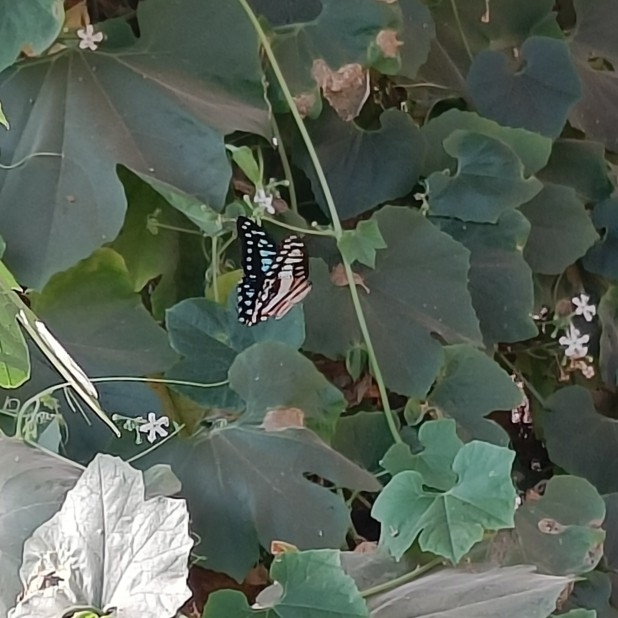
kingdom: Animalia
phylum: Arthropoda
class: Insecta
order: Lepidoptera
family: Papilionidae
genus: Graphium
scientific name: Graphium doson
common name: Common jay
